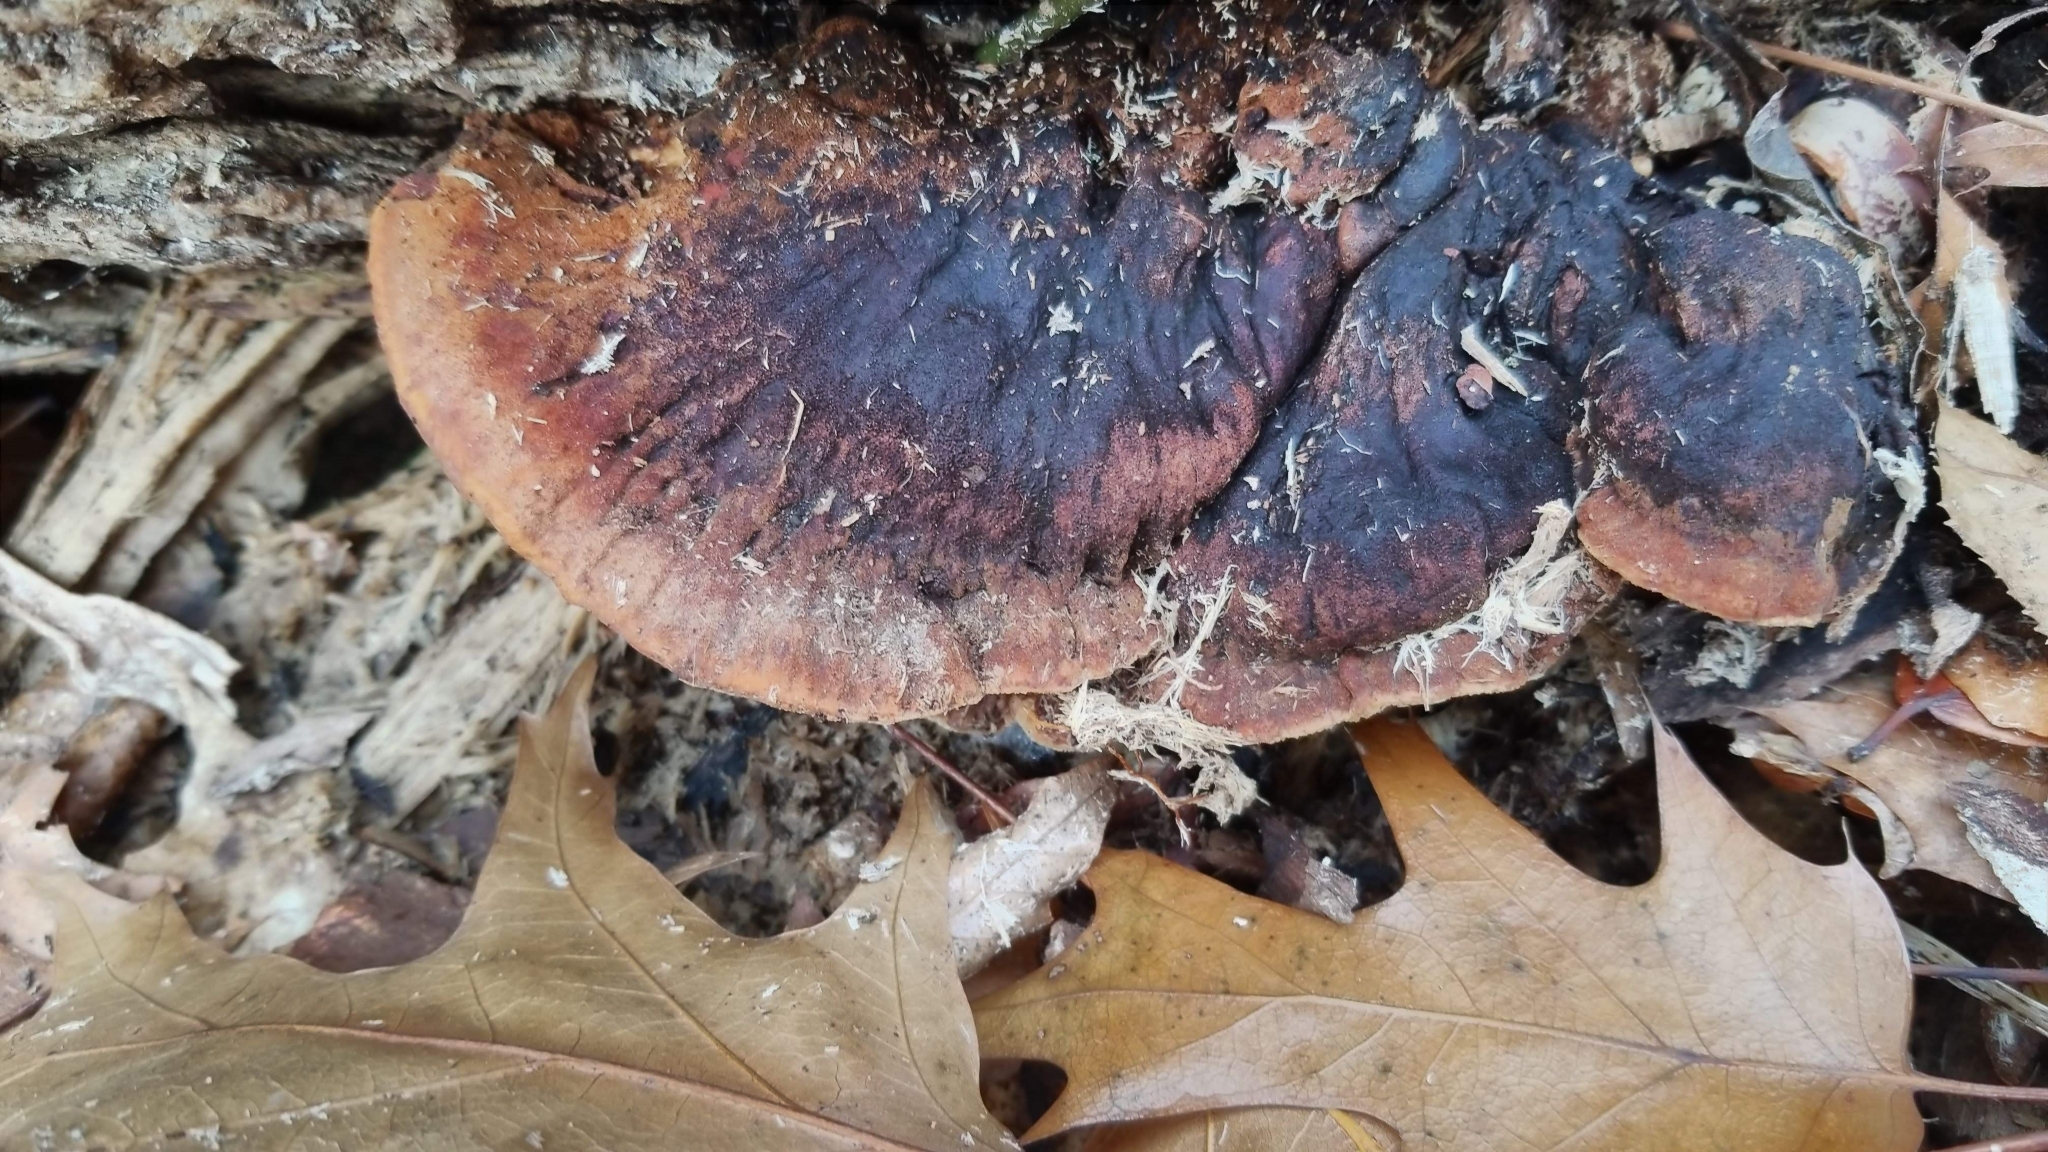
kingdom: Fungi
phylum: Basidiomycota
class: Agaricomycetes
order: Polyporales
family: Ischnodermataceae
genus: Ischnoderma
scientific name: Ischnoderma resinosum
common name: Resinous polypore
